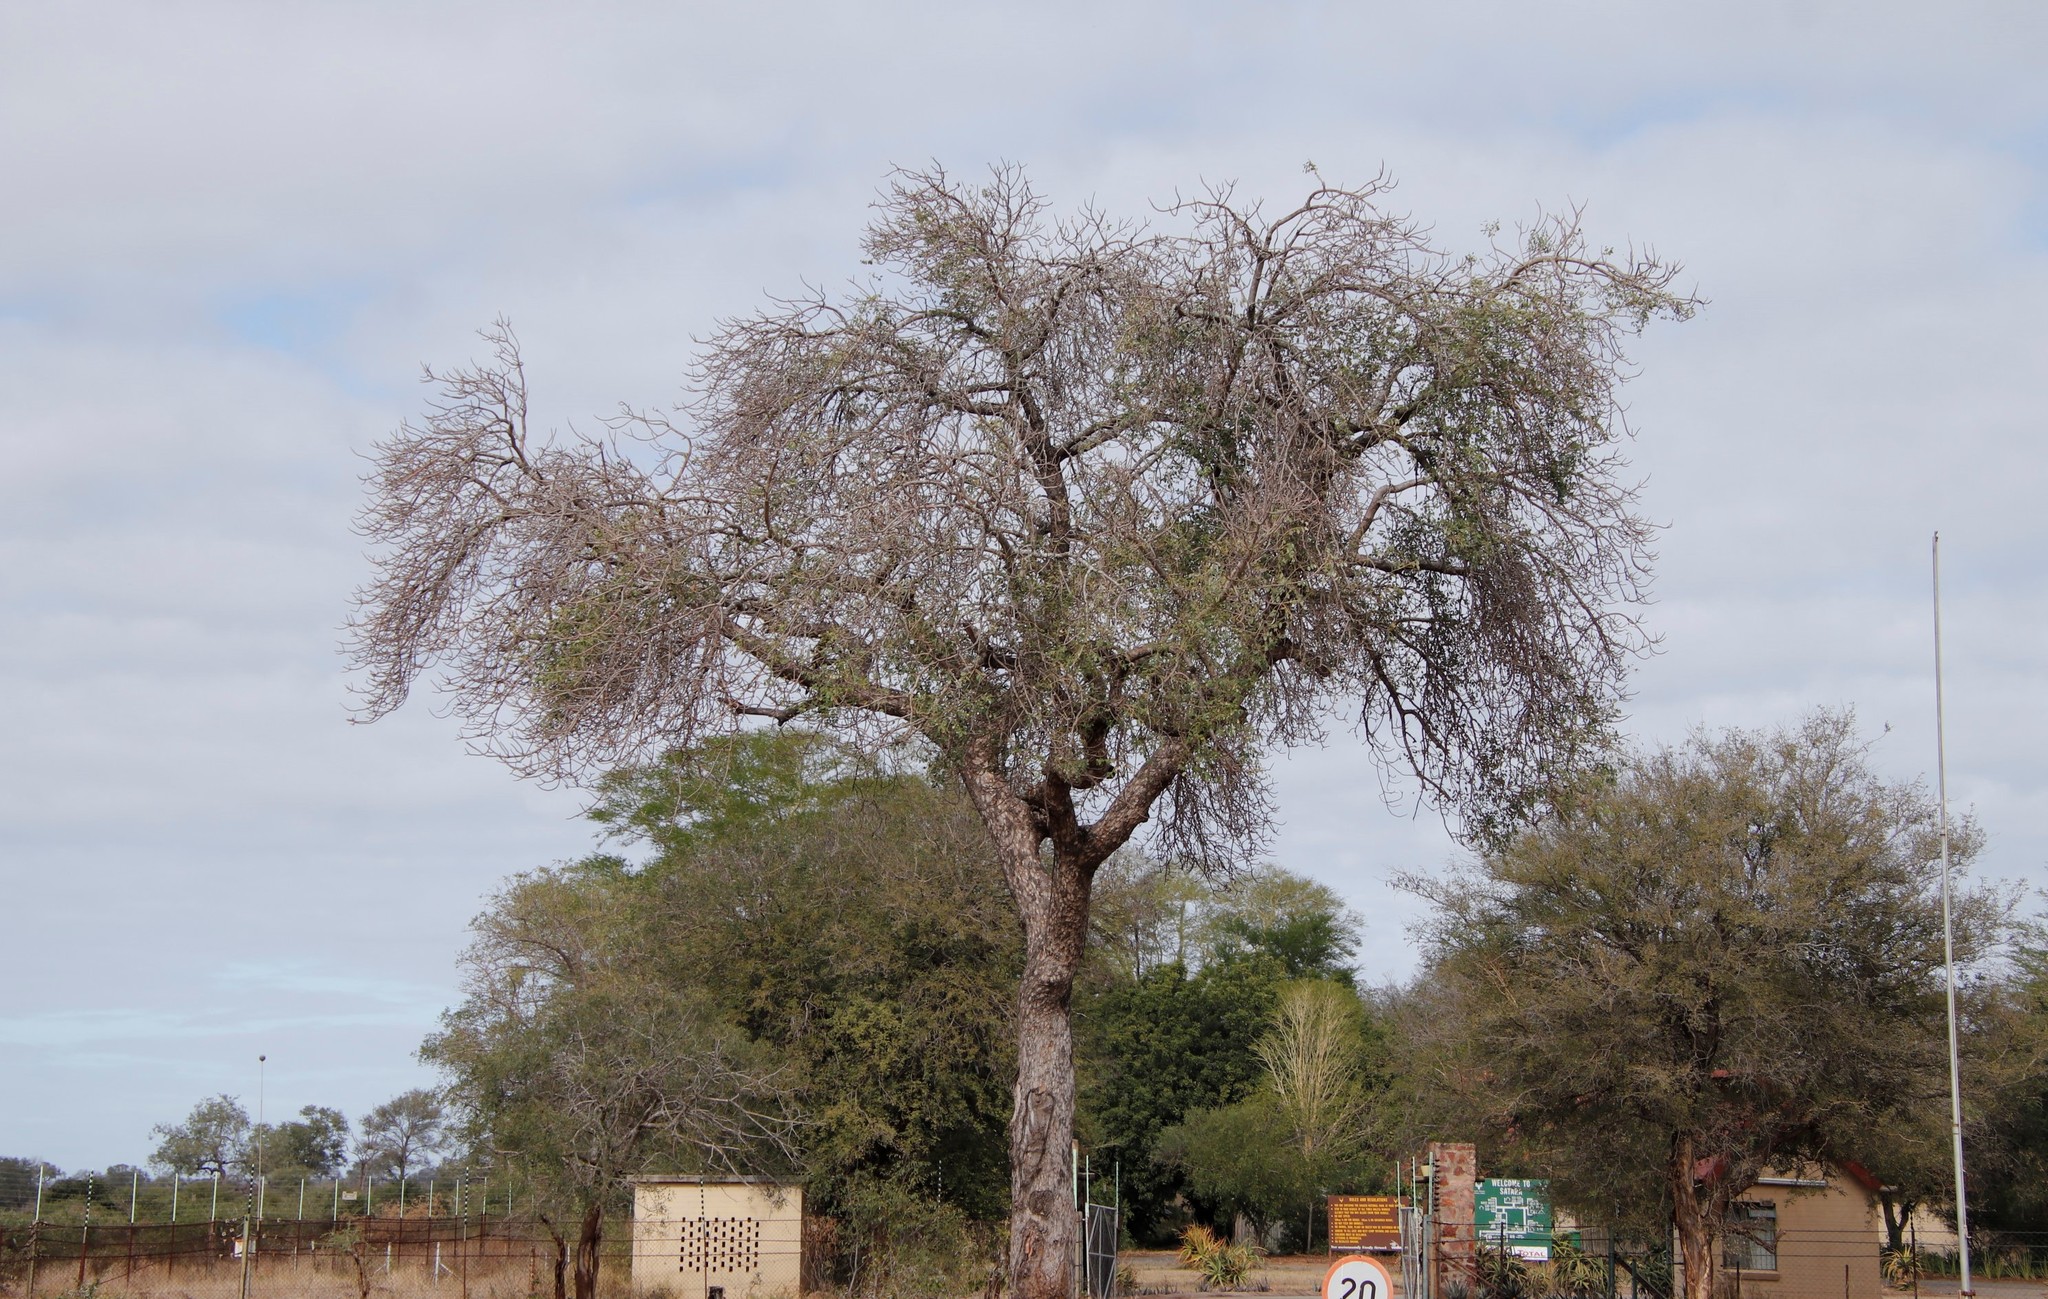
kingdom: Plantae
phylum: Tracheophyta
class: Magnoliopsida
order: Sapindales
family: Anacardiaceae
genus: Sclerocarya
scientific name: Sclerocarya birrea
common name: Marula
